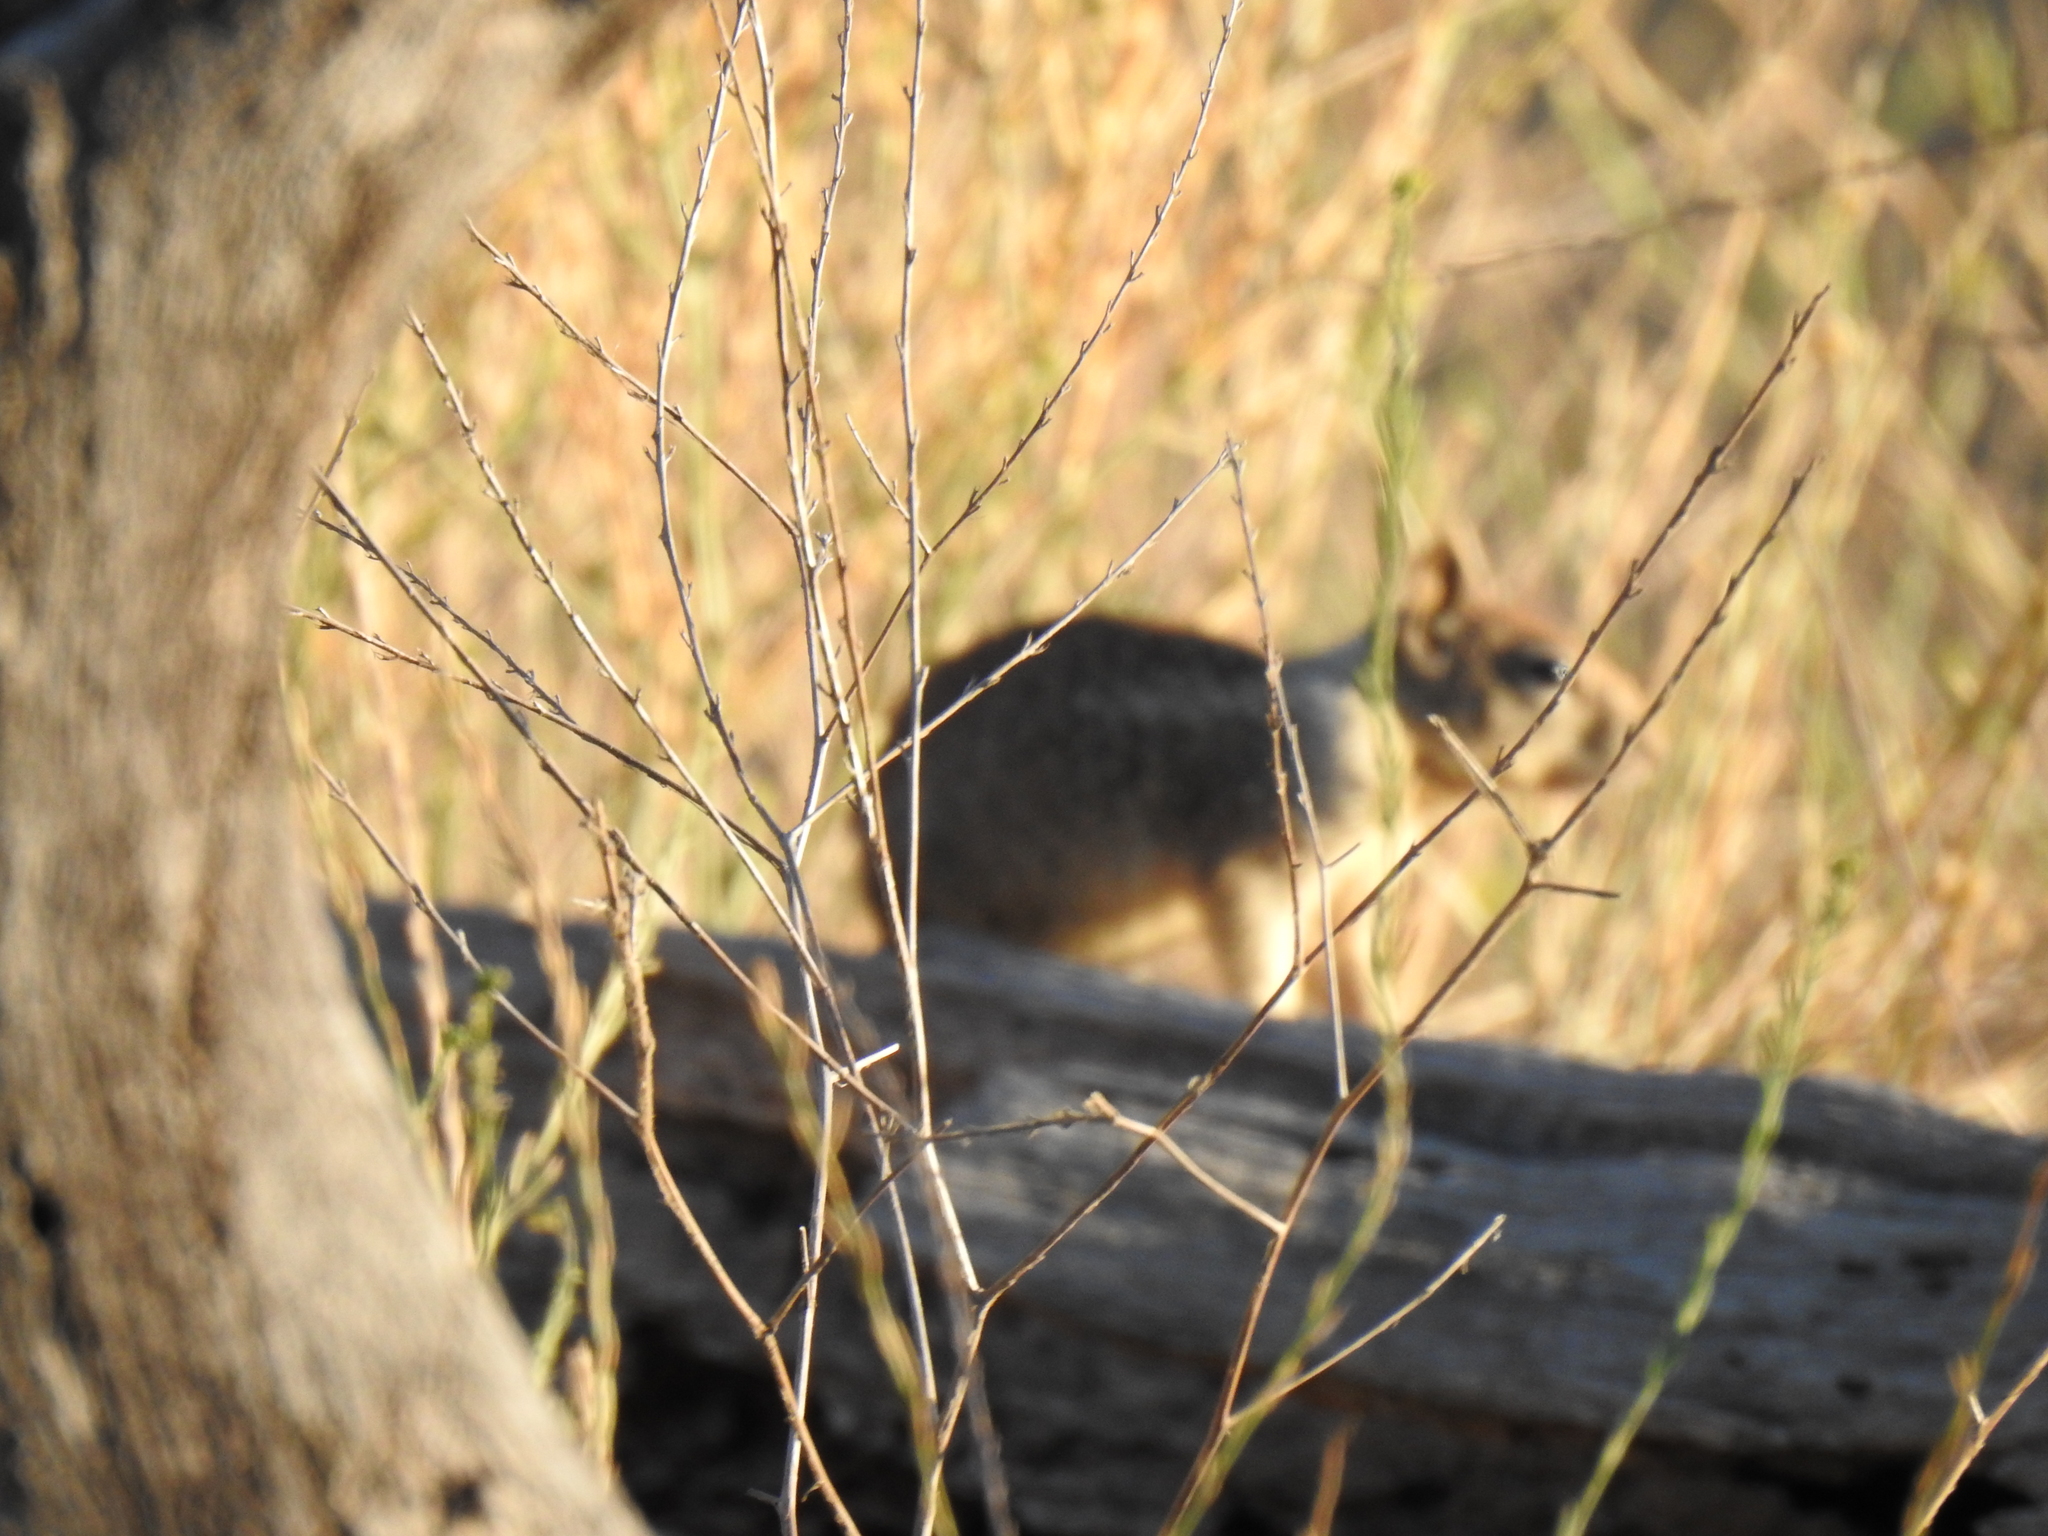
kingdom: Animalia
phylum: Chordata
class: Mammalia
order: Rodentia
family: Sciuridae
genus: Otospermophilus
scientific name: Otospermophilus beecheyi
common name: California ground squirrel
